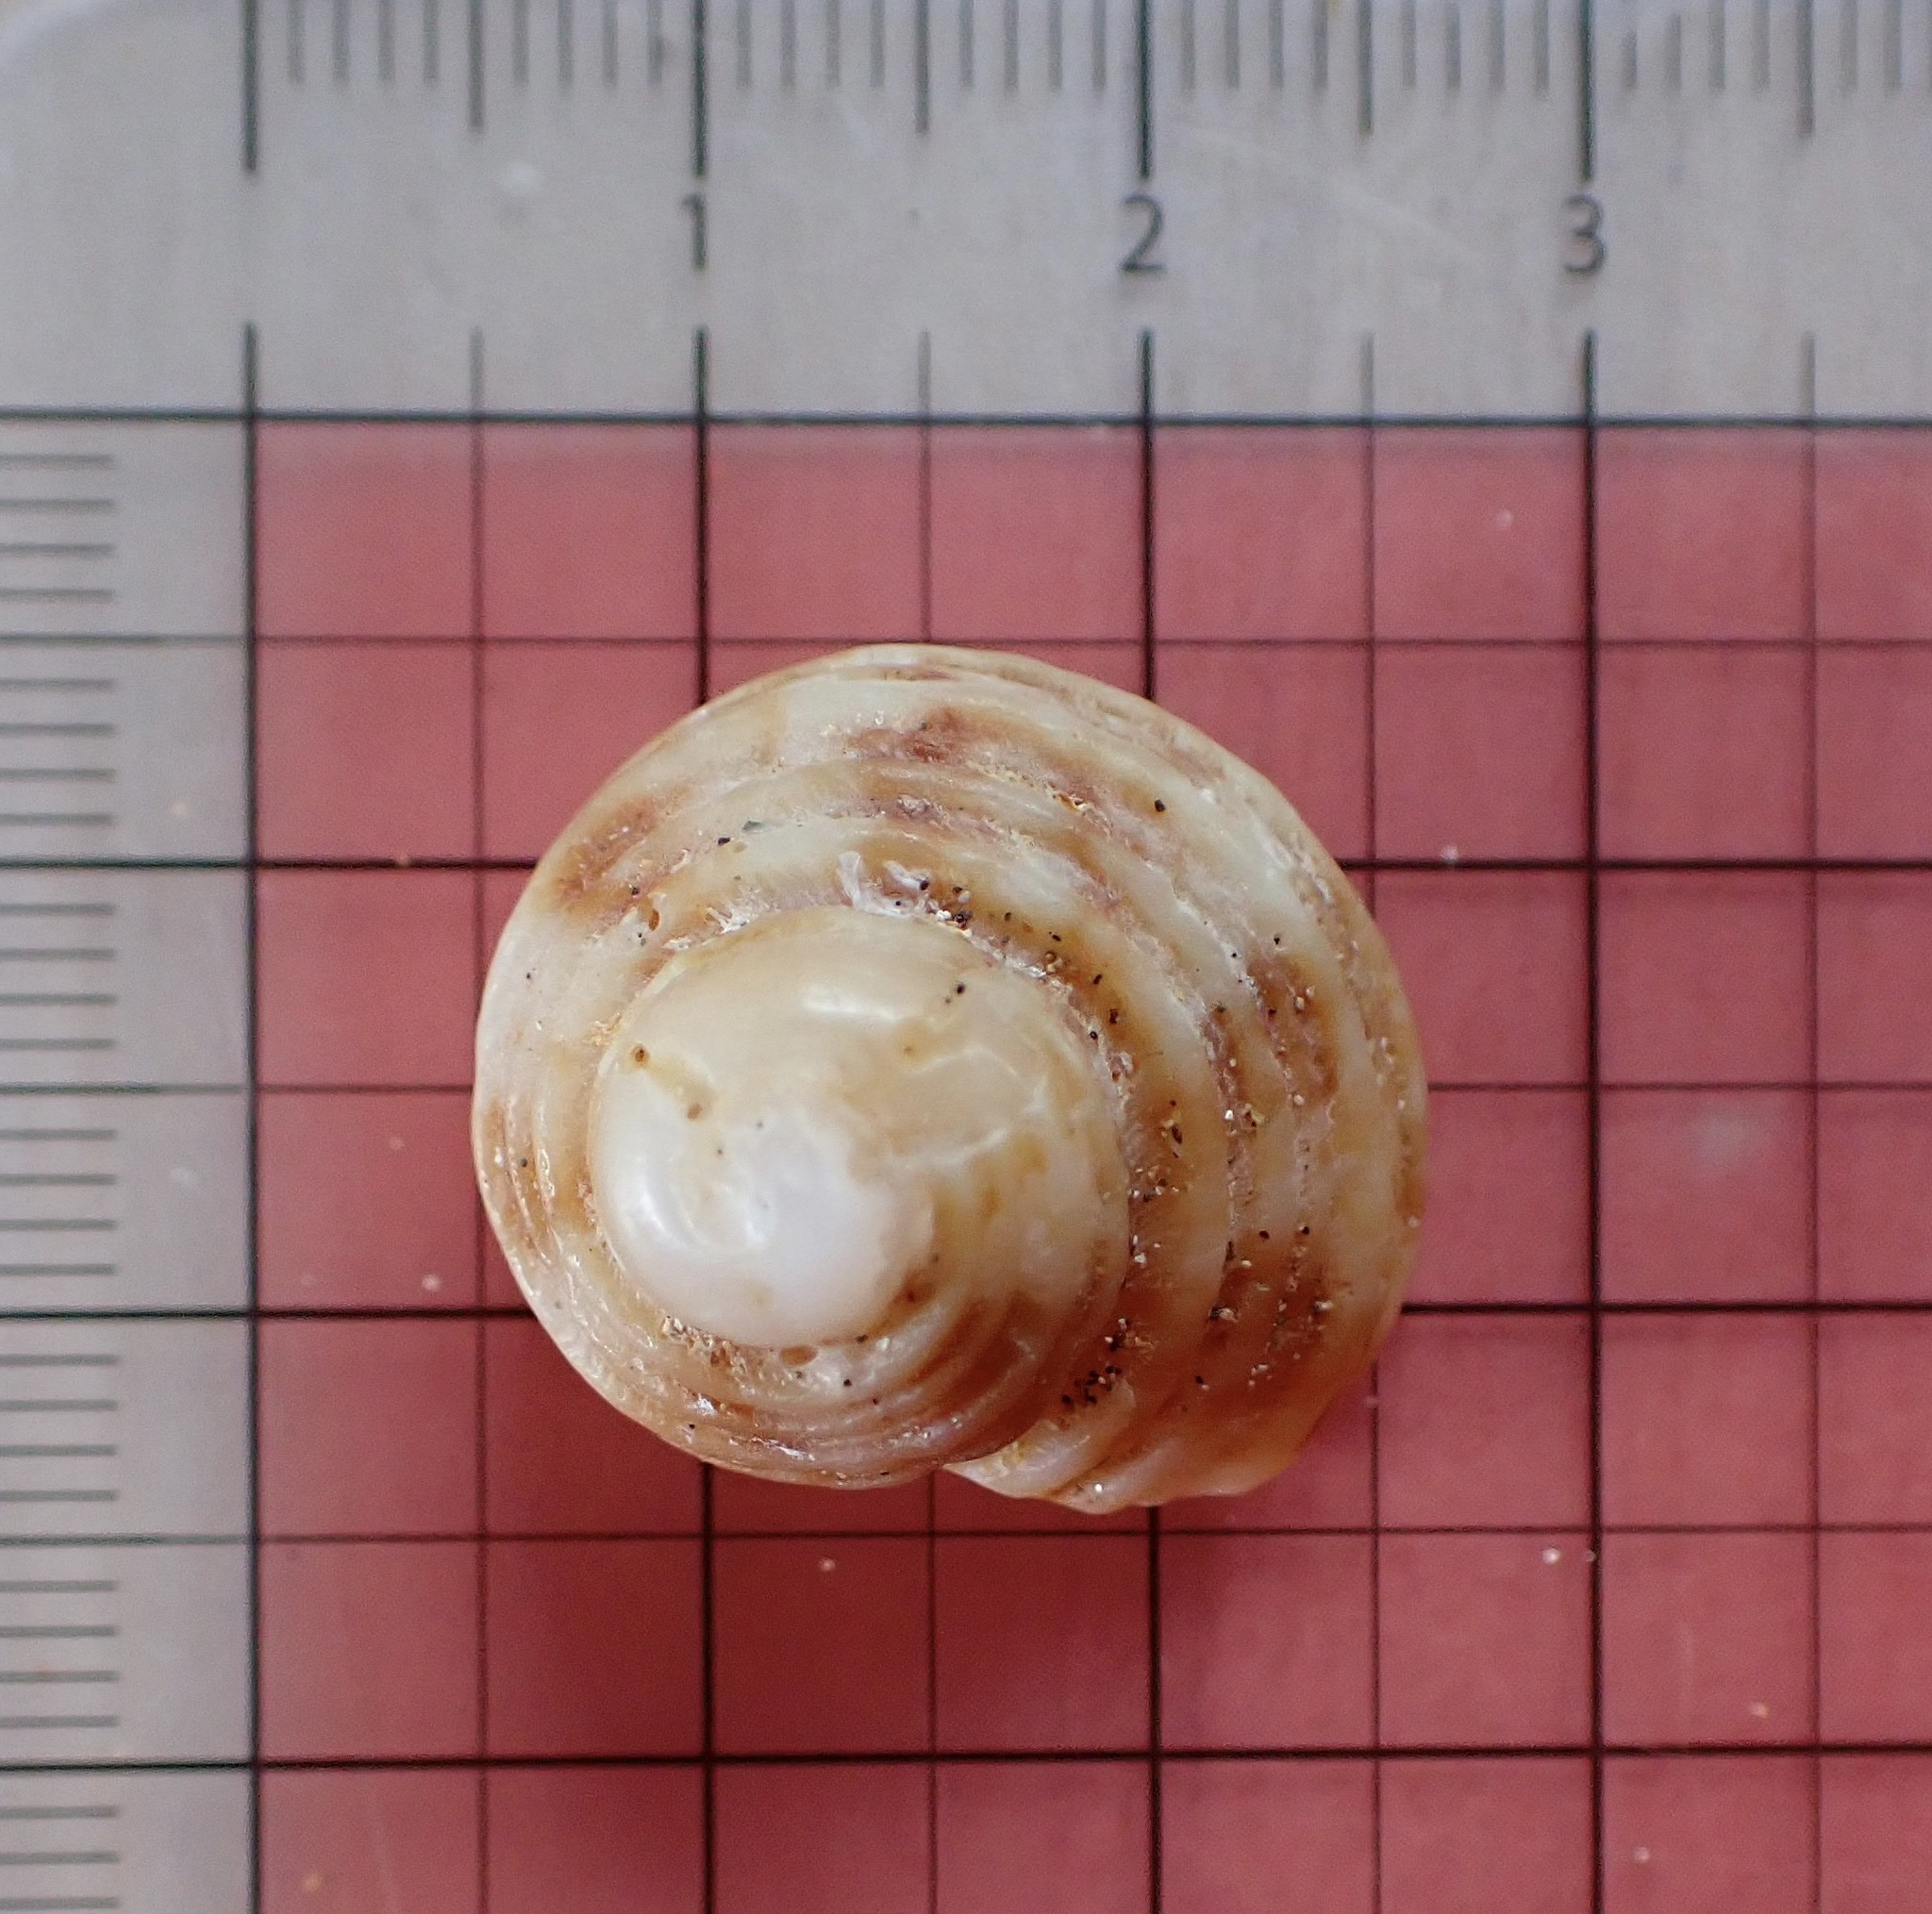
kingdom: Animalia
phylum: Mollusca
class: Gastropoda
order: Trochida
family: Turbinidae
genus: Turbo
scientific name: Turbo sandwicensis
